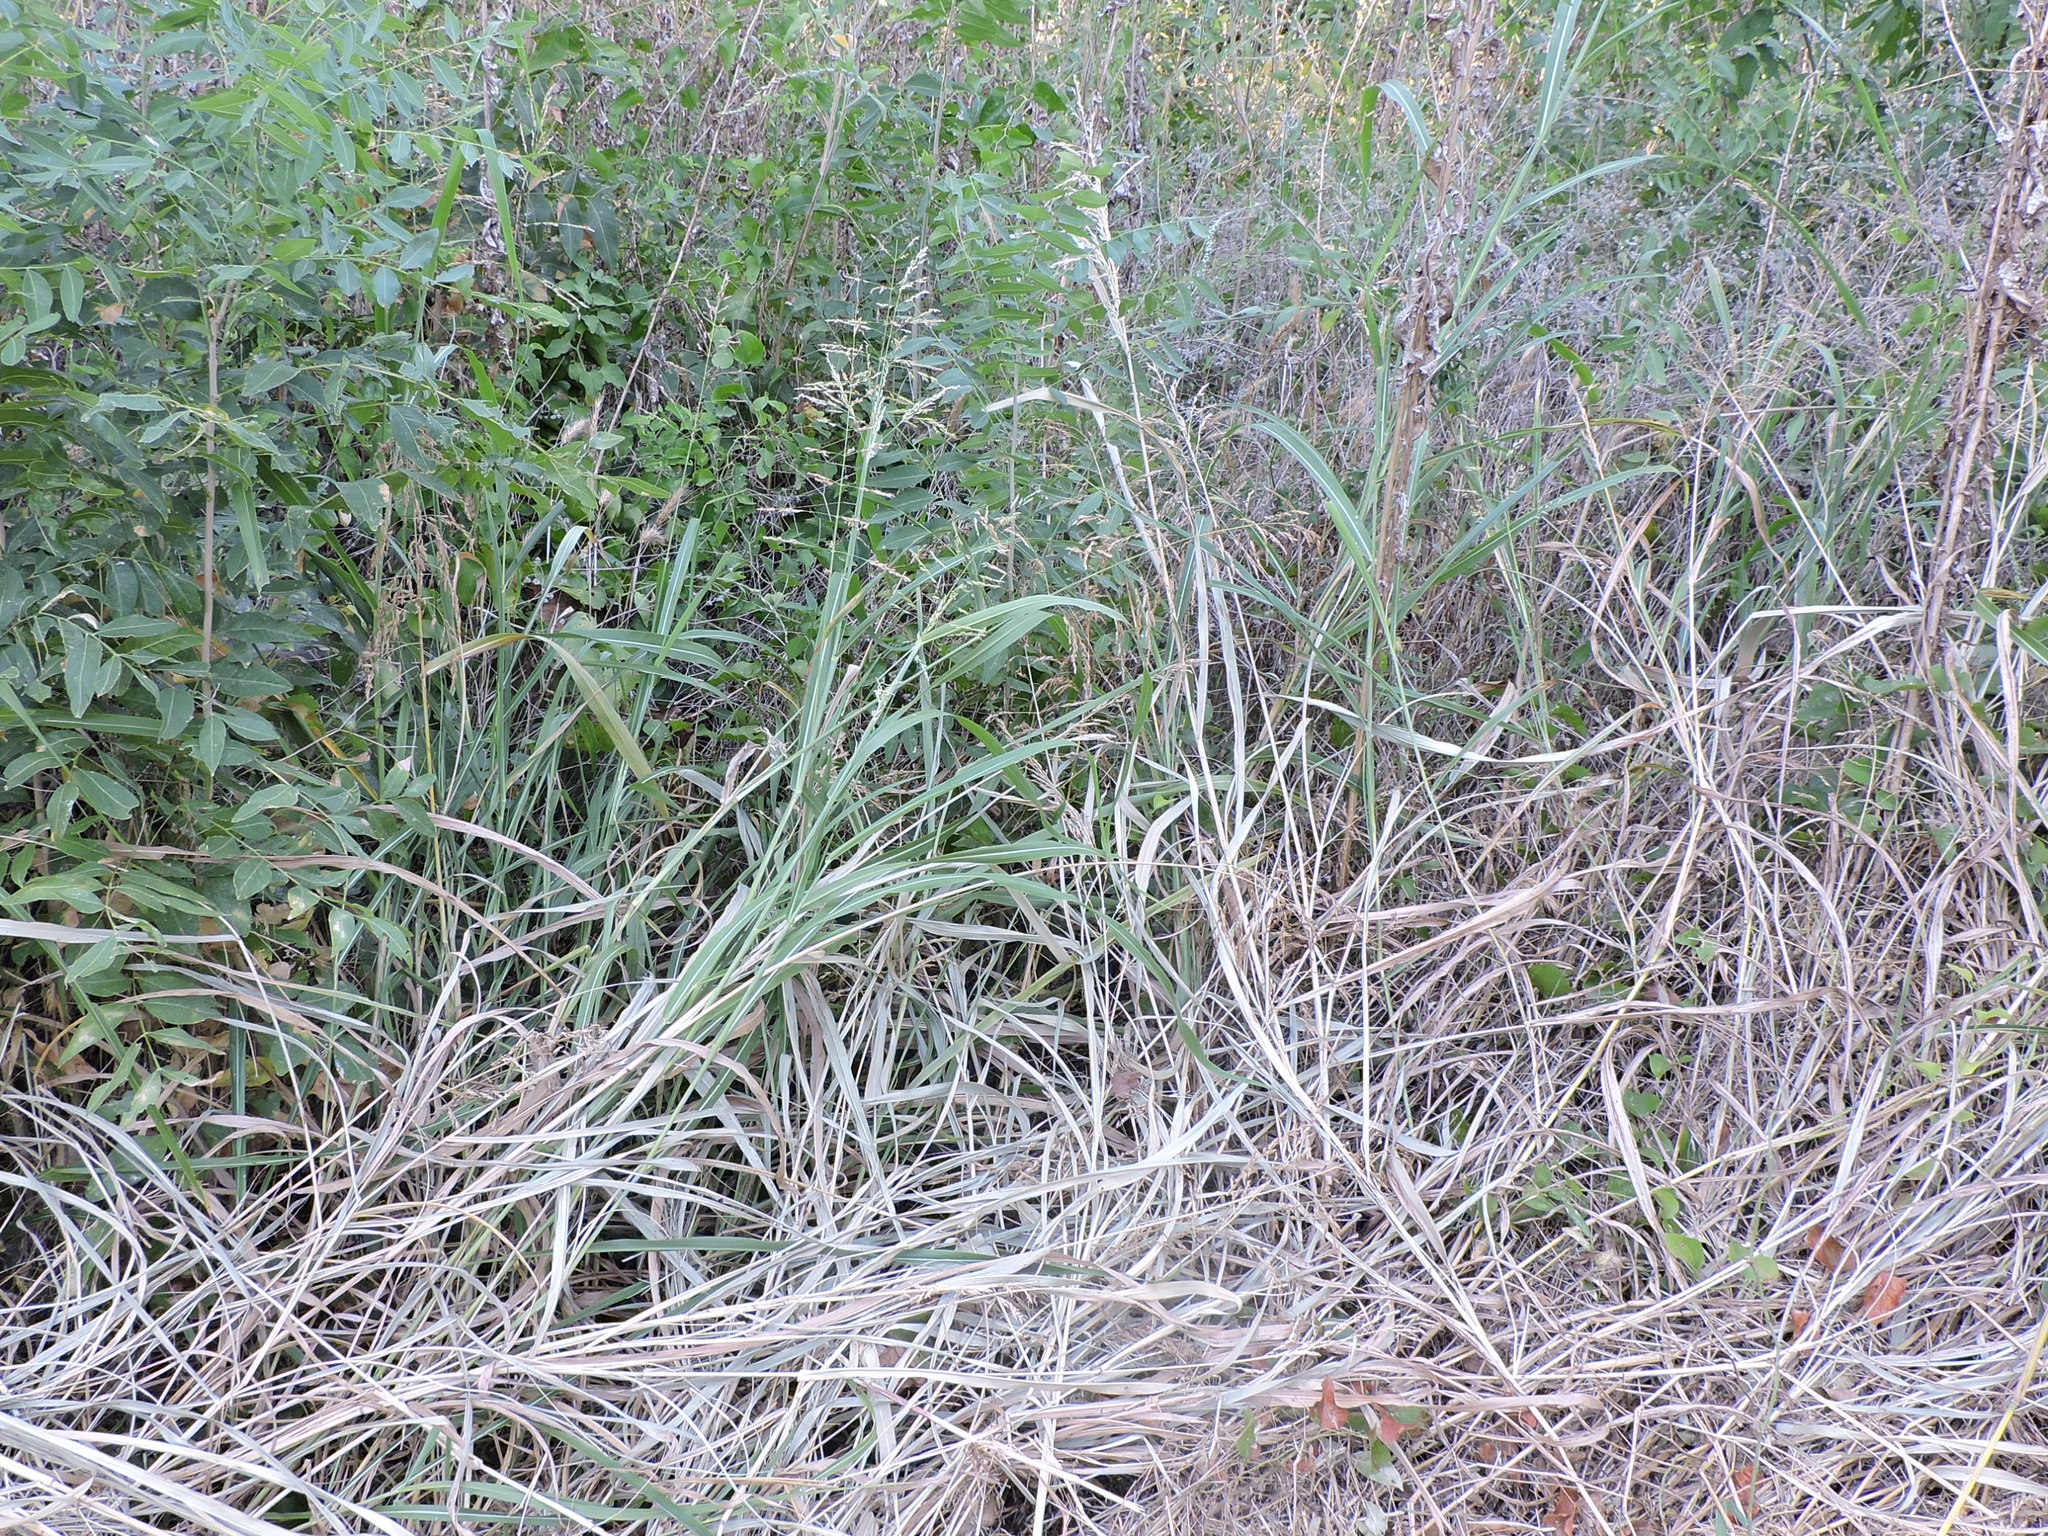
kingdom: Plantae
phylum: Tracheophyta
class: Liliopsida
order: Poales
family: Poaceae
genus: Sorghum
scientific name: Sorghum halepense
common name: Johnson-grass
